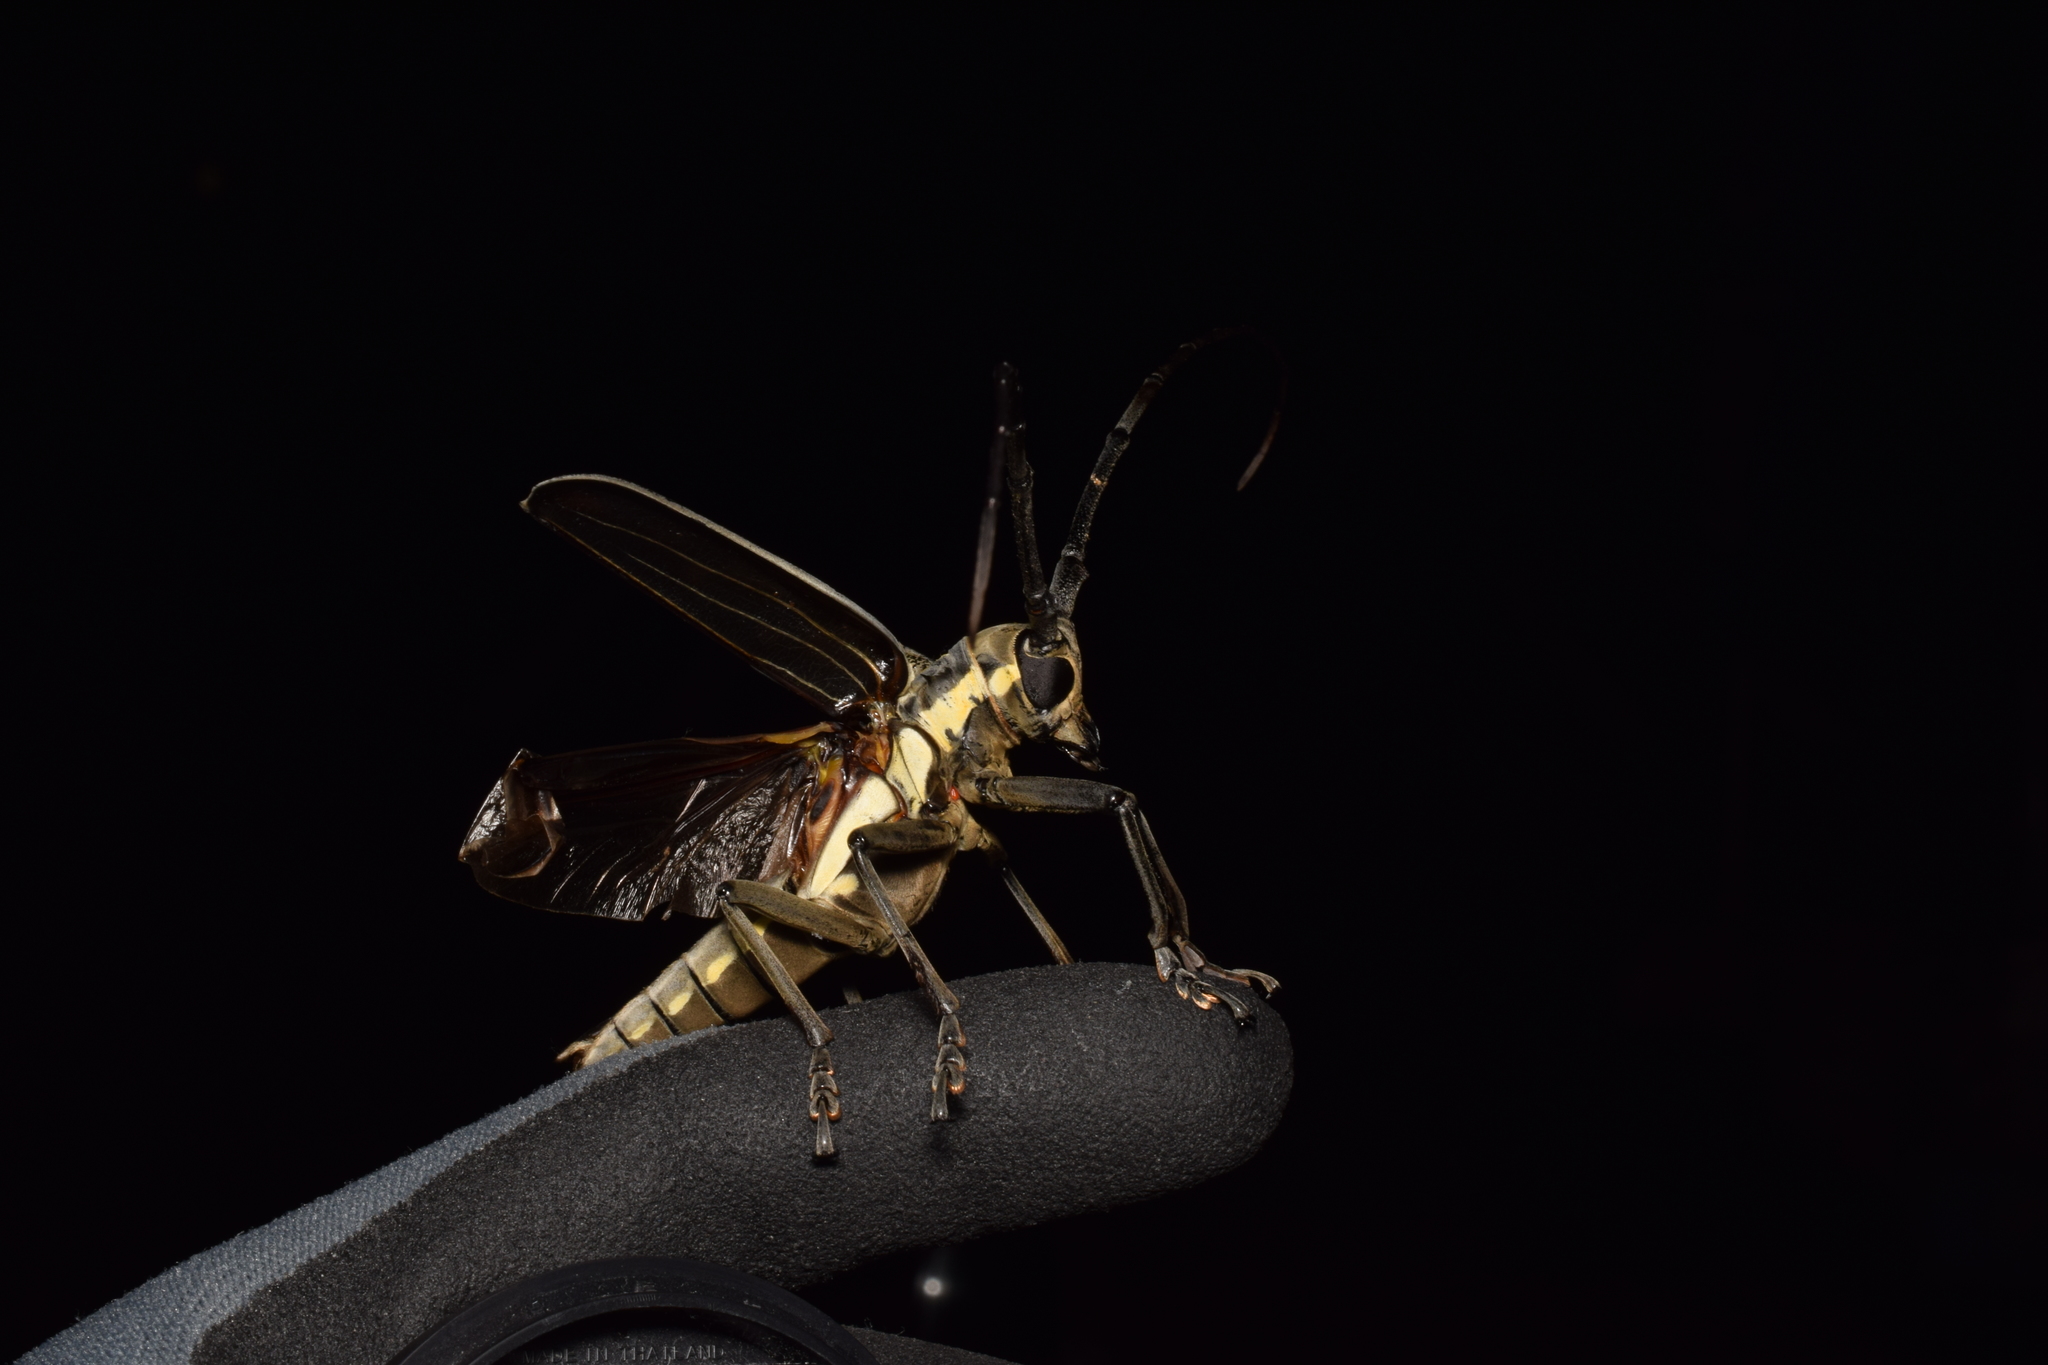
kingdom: Animalia
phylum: Arthropoda
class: Insecta
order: Coleoptera
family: Cerambycidae
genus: Batocera
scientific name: Batocera lineolata
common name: Whitestriped long-horned beetle
